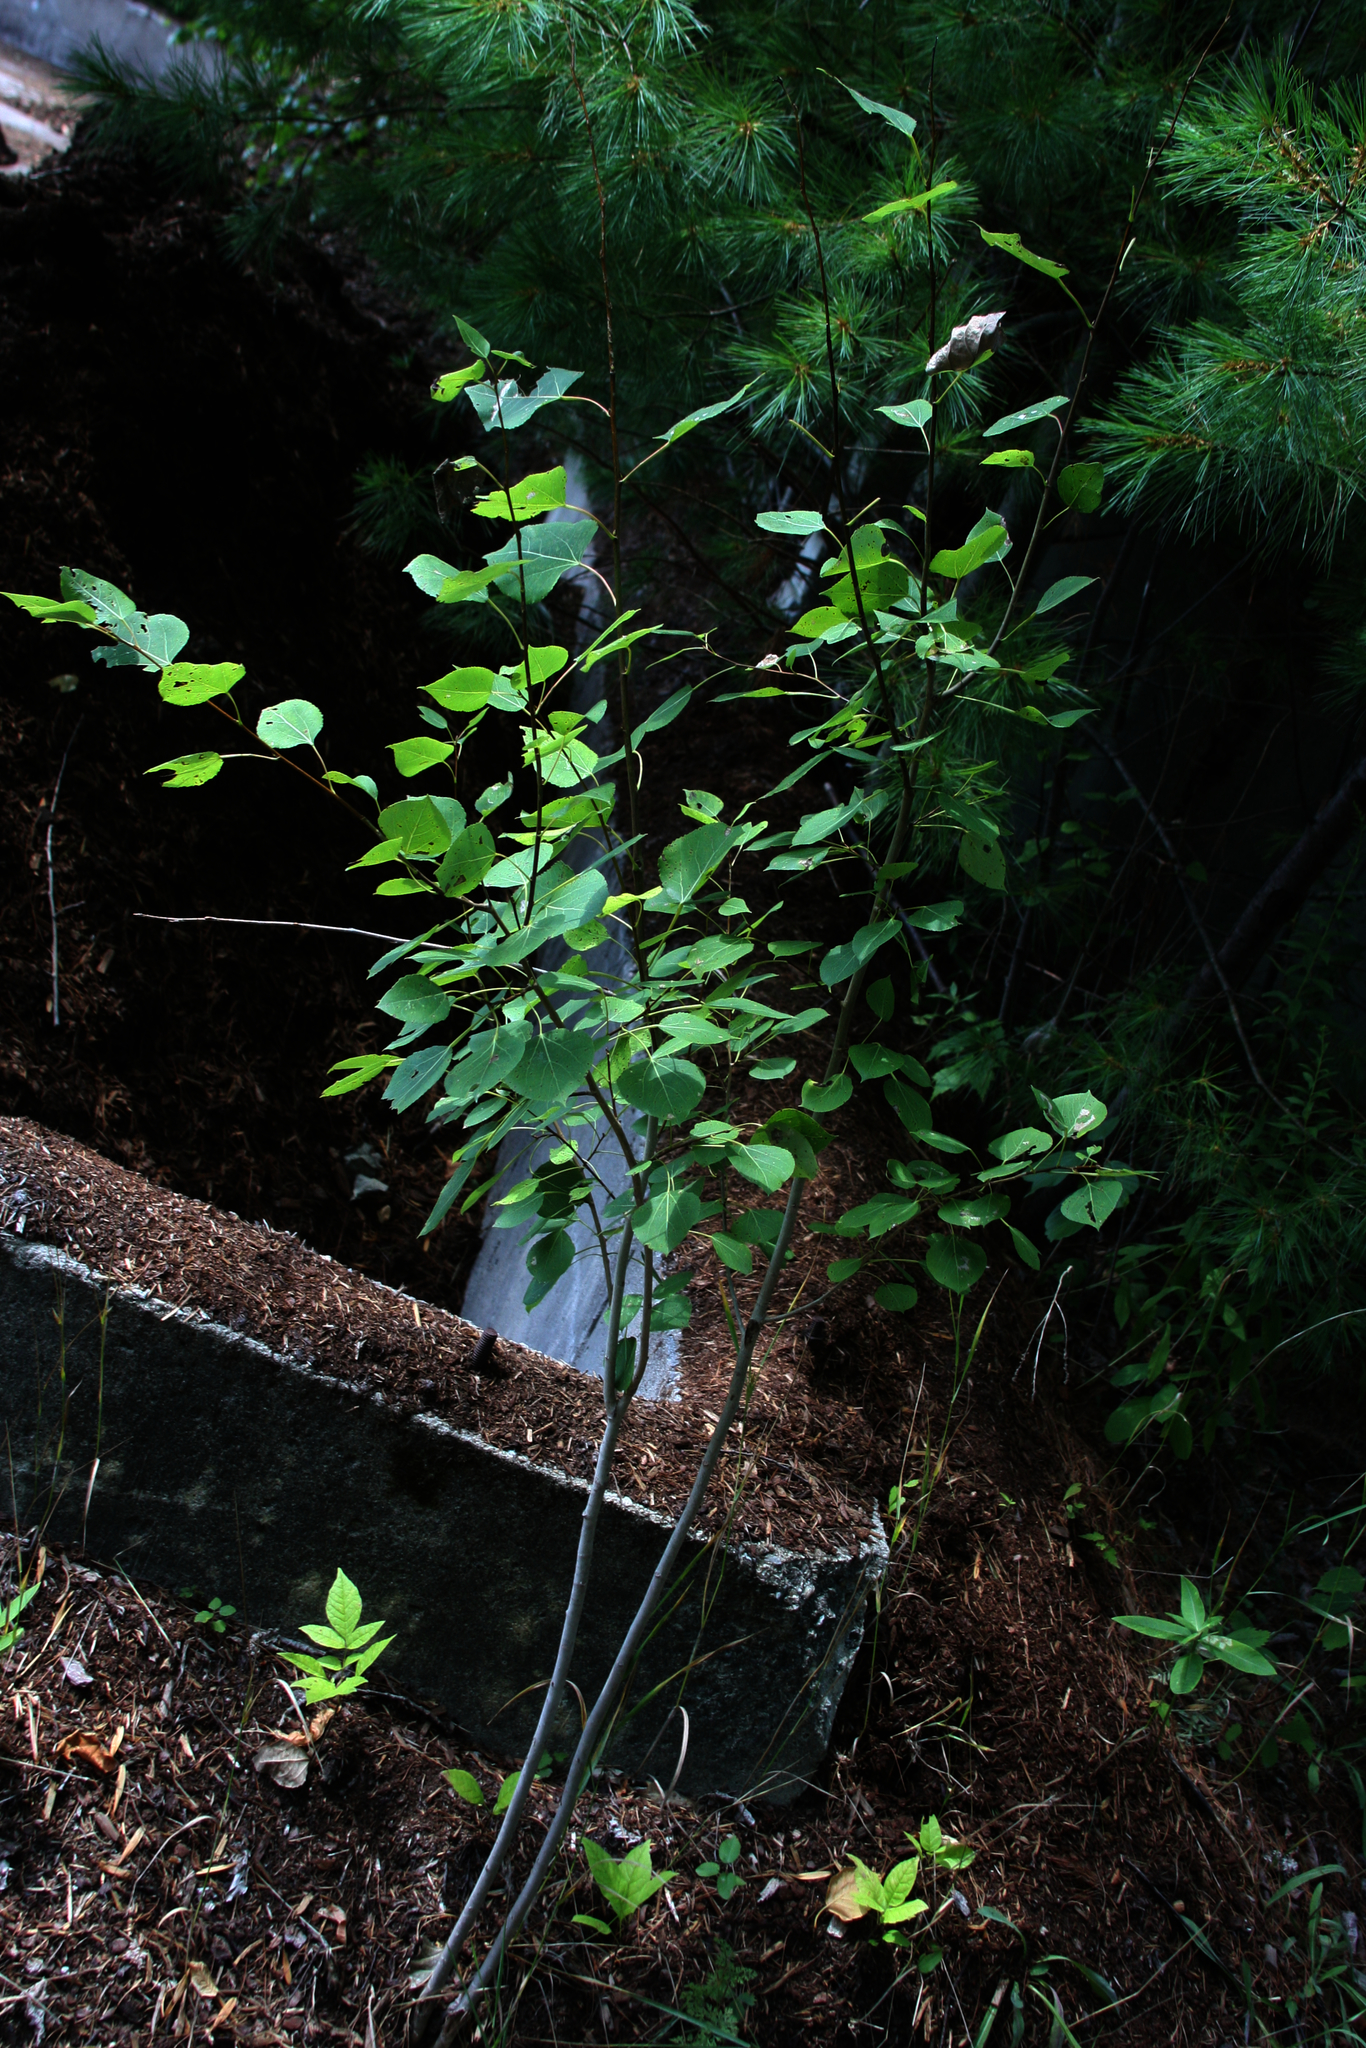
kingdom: Plantae
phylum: Tracheophyta
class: Magnoliopsida
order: Malpighiales
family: Salicaceae
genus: Populus
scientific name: Populus tremuloides
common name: Quaking aspen
